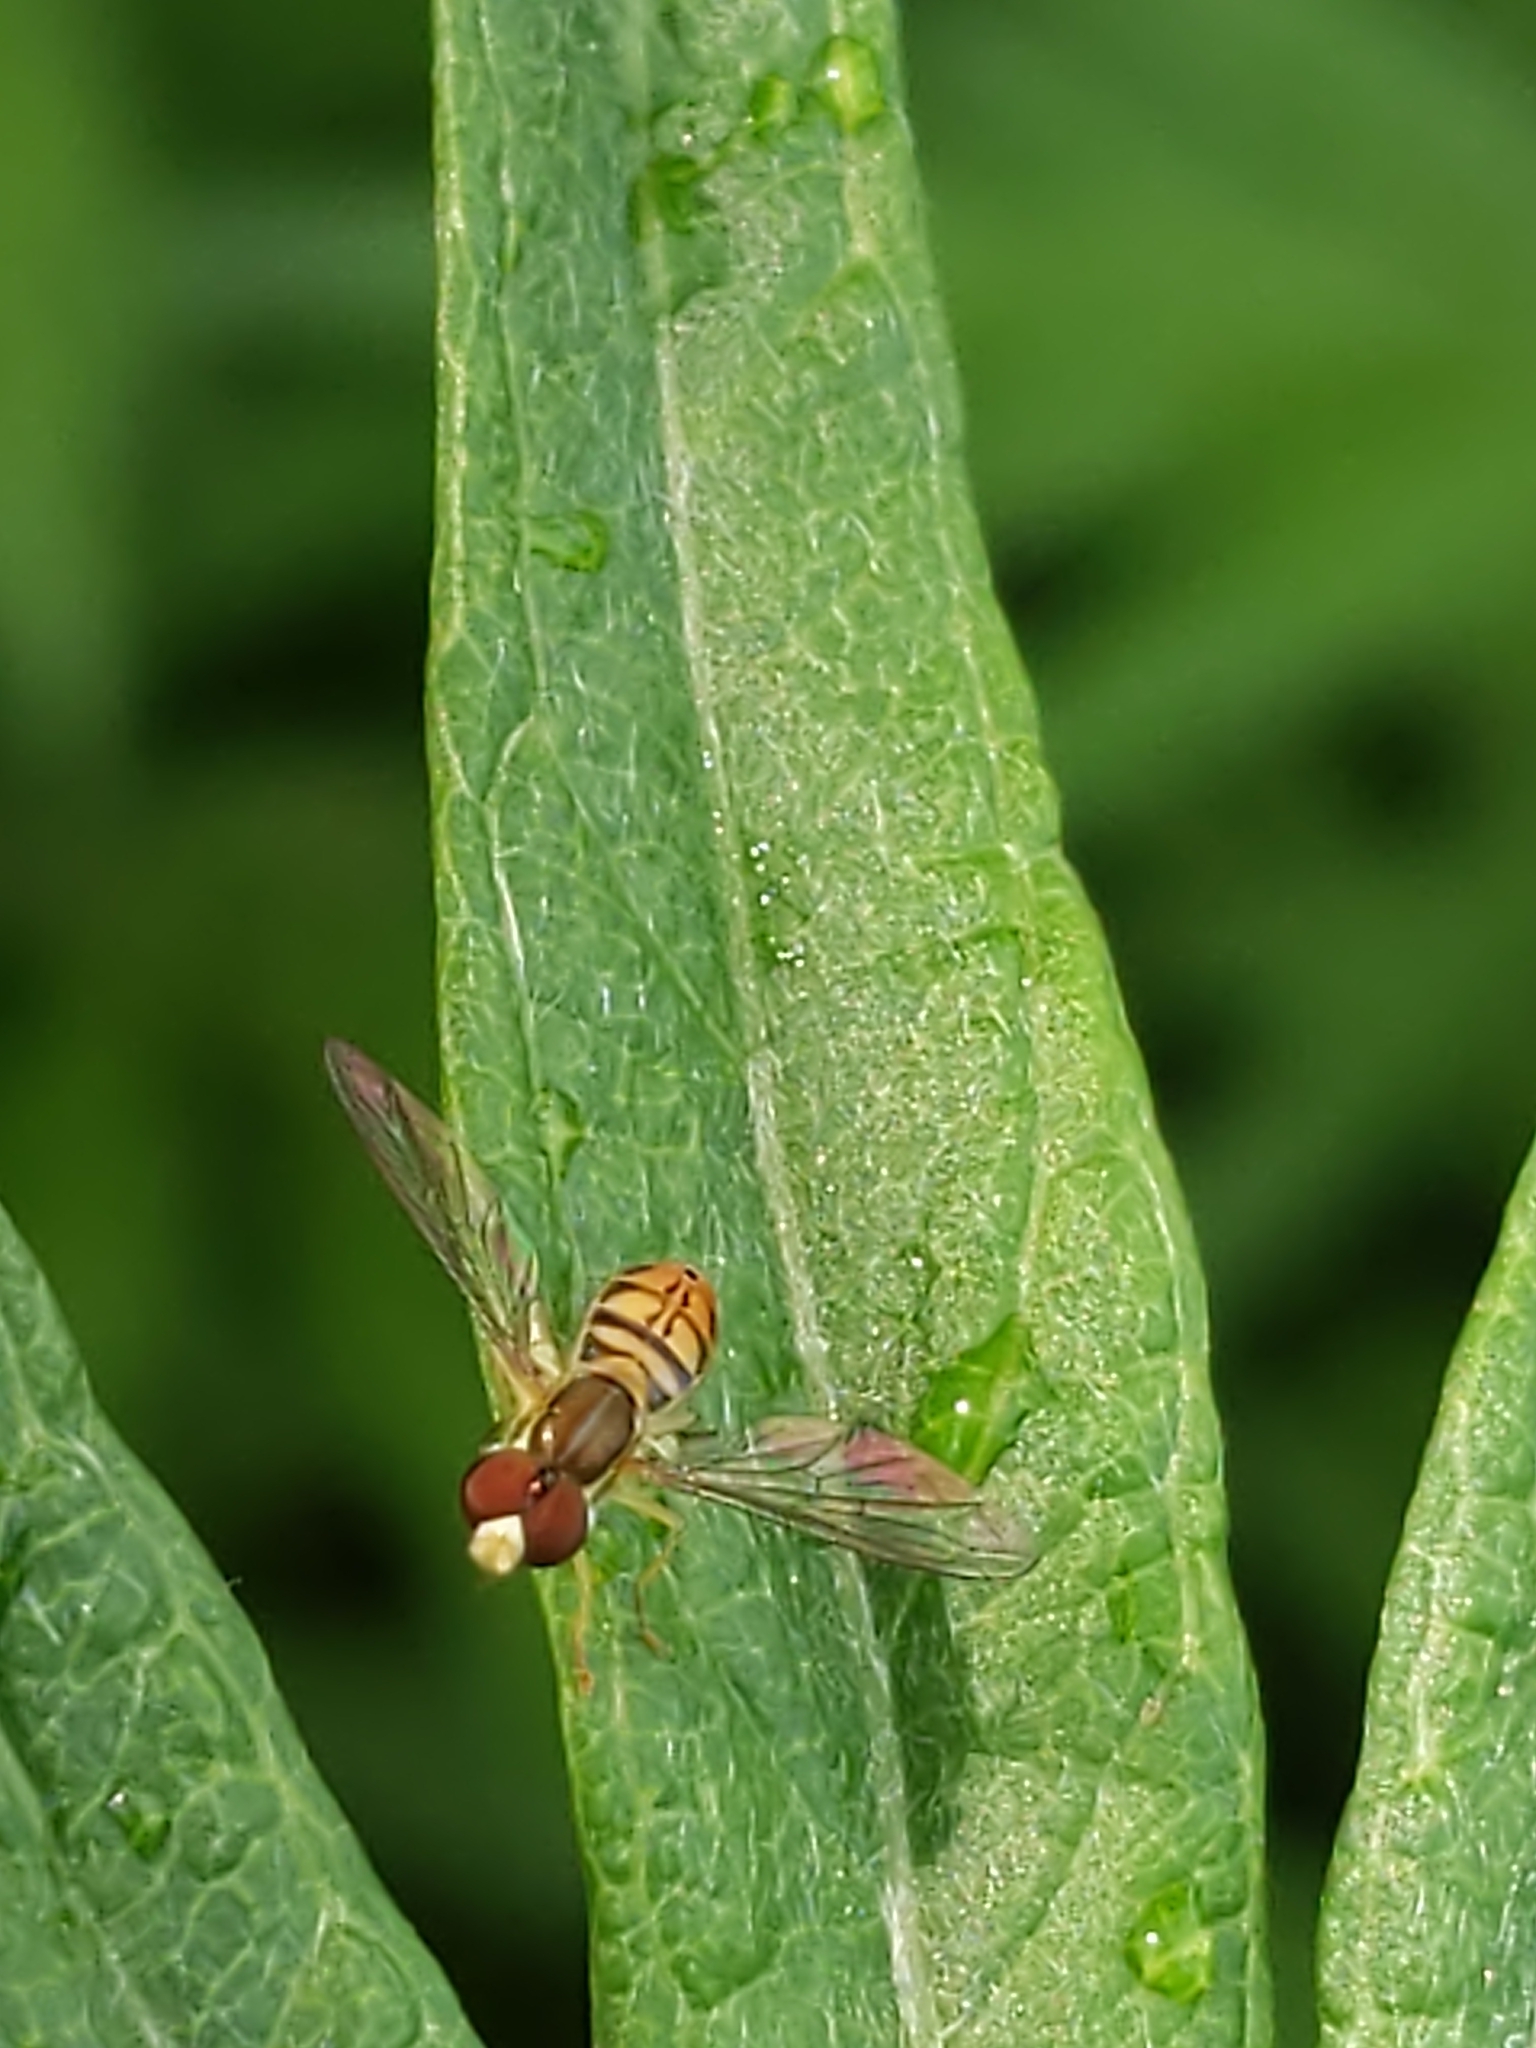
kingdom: Animalia
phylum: Arthropoda
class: Insecta
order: Diptera
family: Syrphidae
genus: Toxomerus
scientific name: Toxomerus marginatus
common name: Syrphid fly
